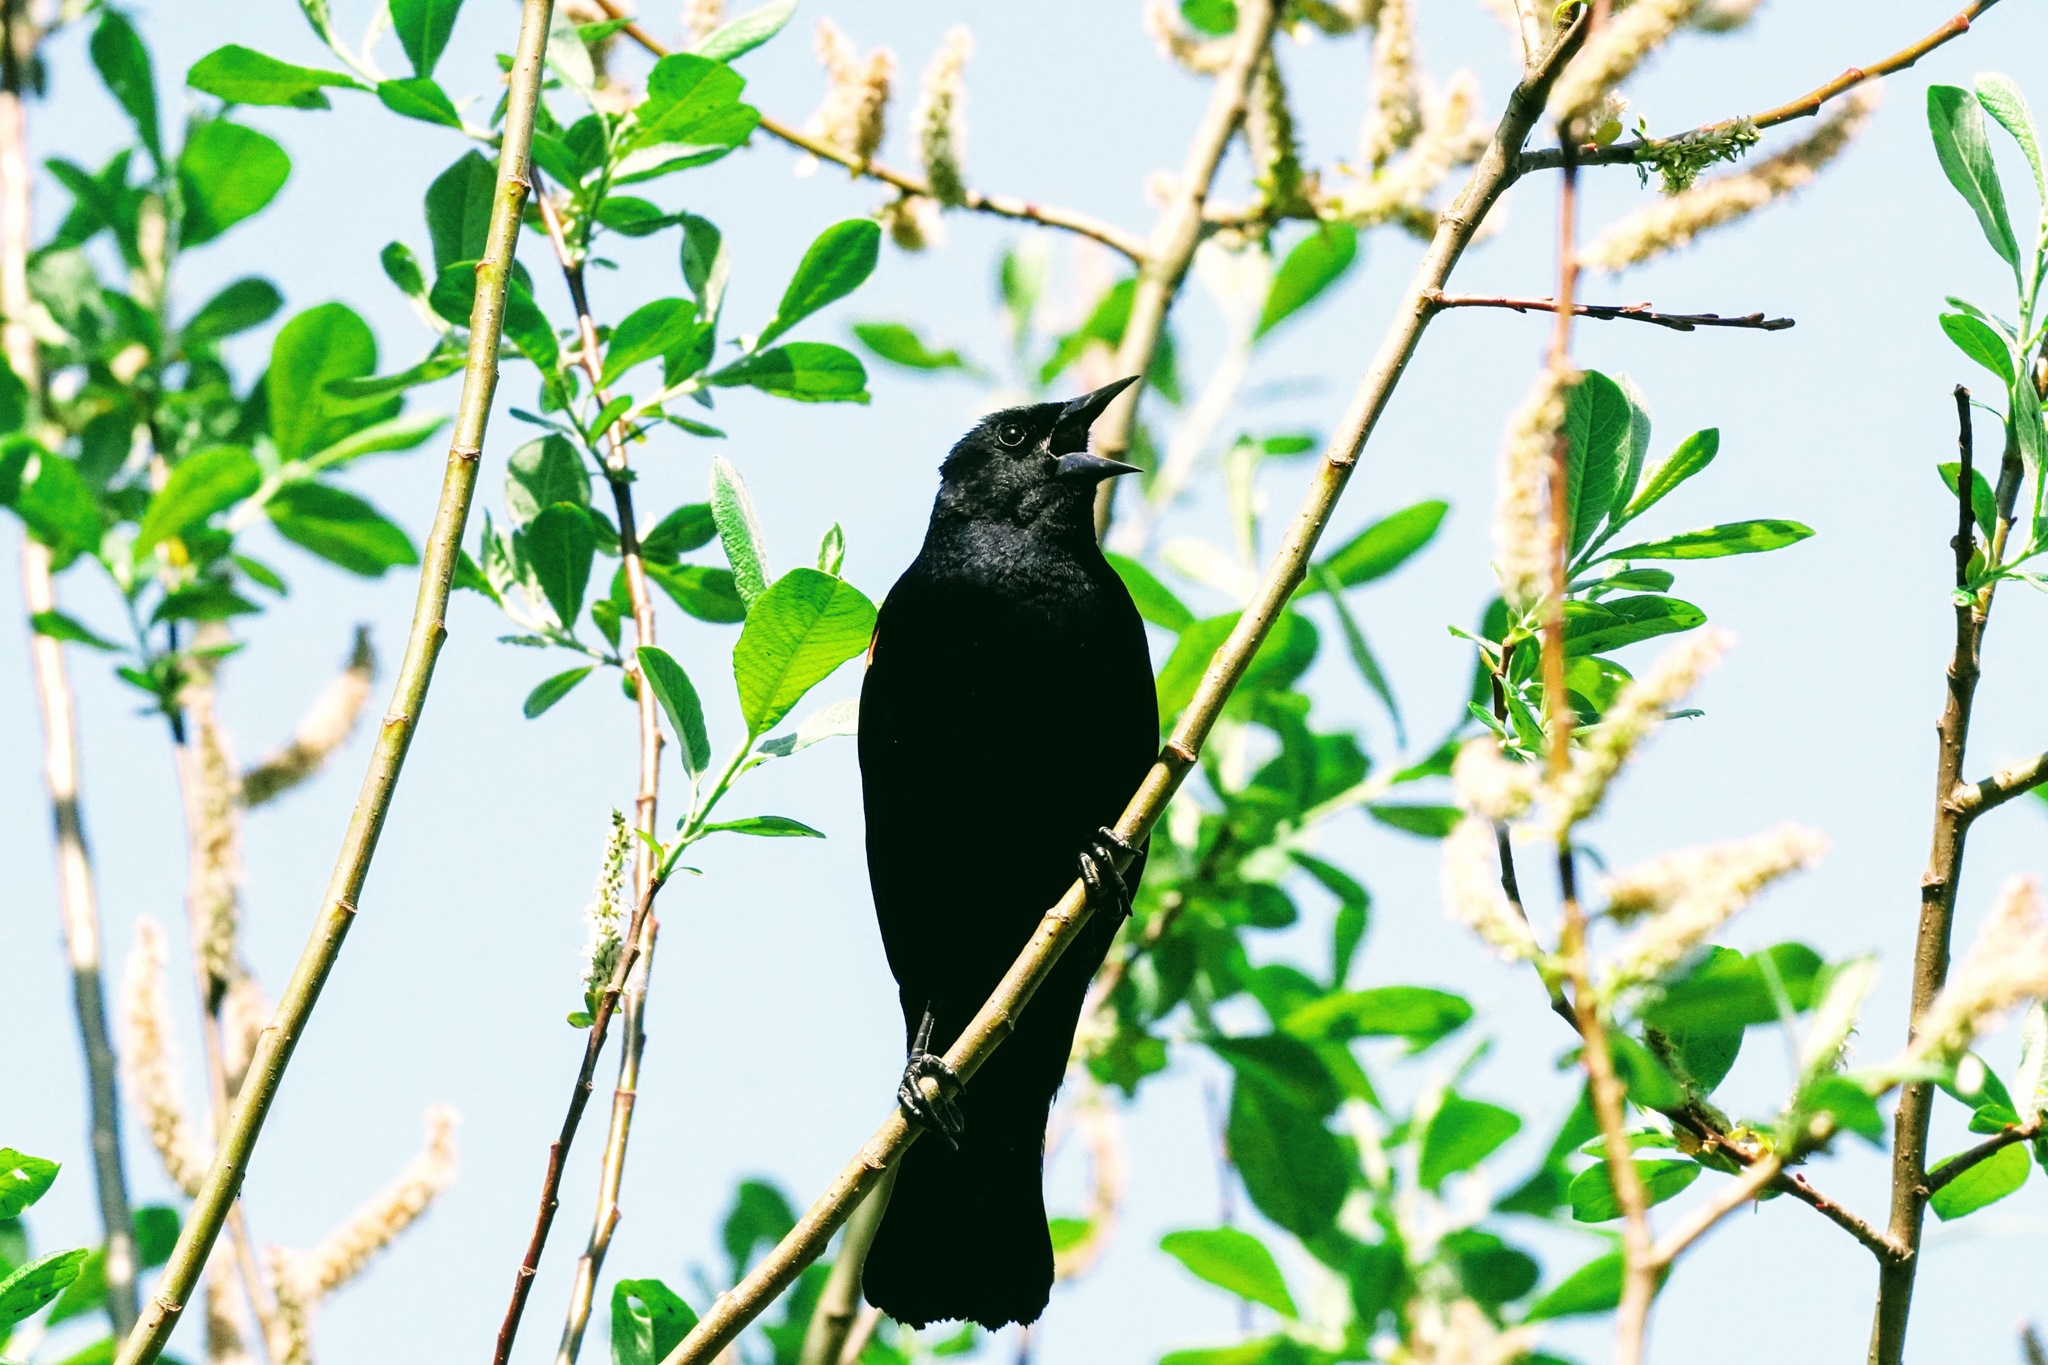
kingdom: Animalia
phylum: Chordata
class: Aves
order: Passeriformes
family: Icteridae
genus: Agelaius
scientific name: Agelaius phoeniceus
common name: Red-winged blackbird
